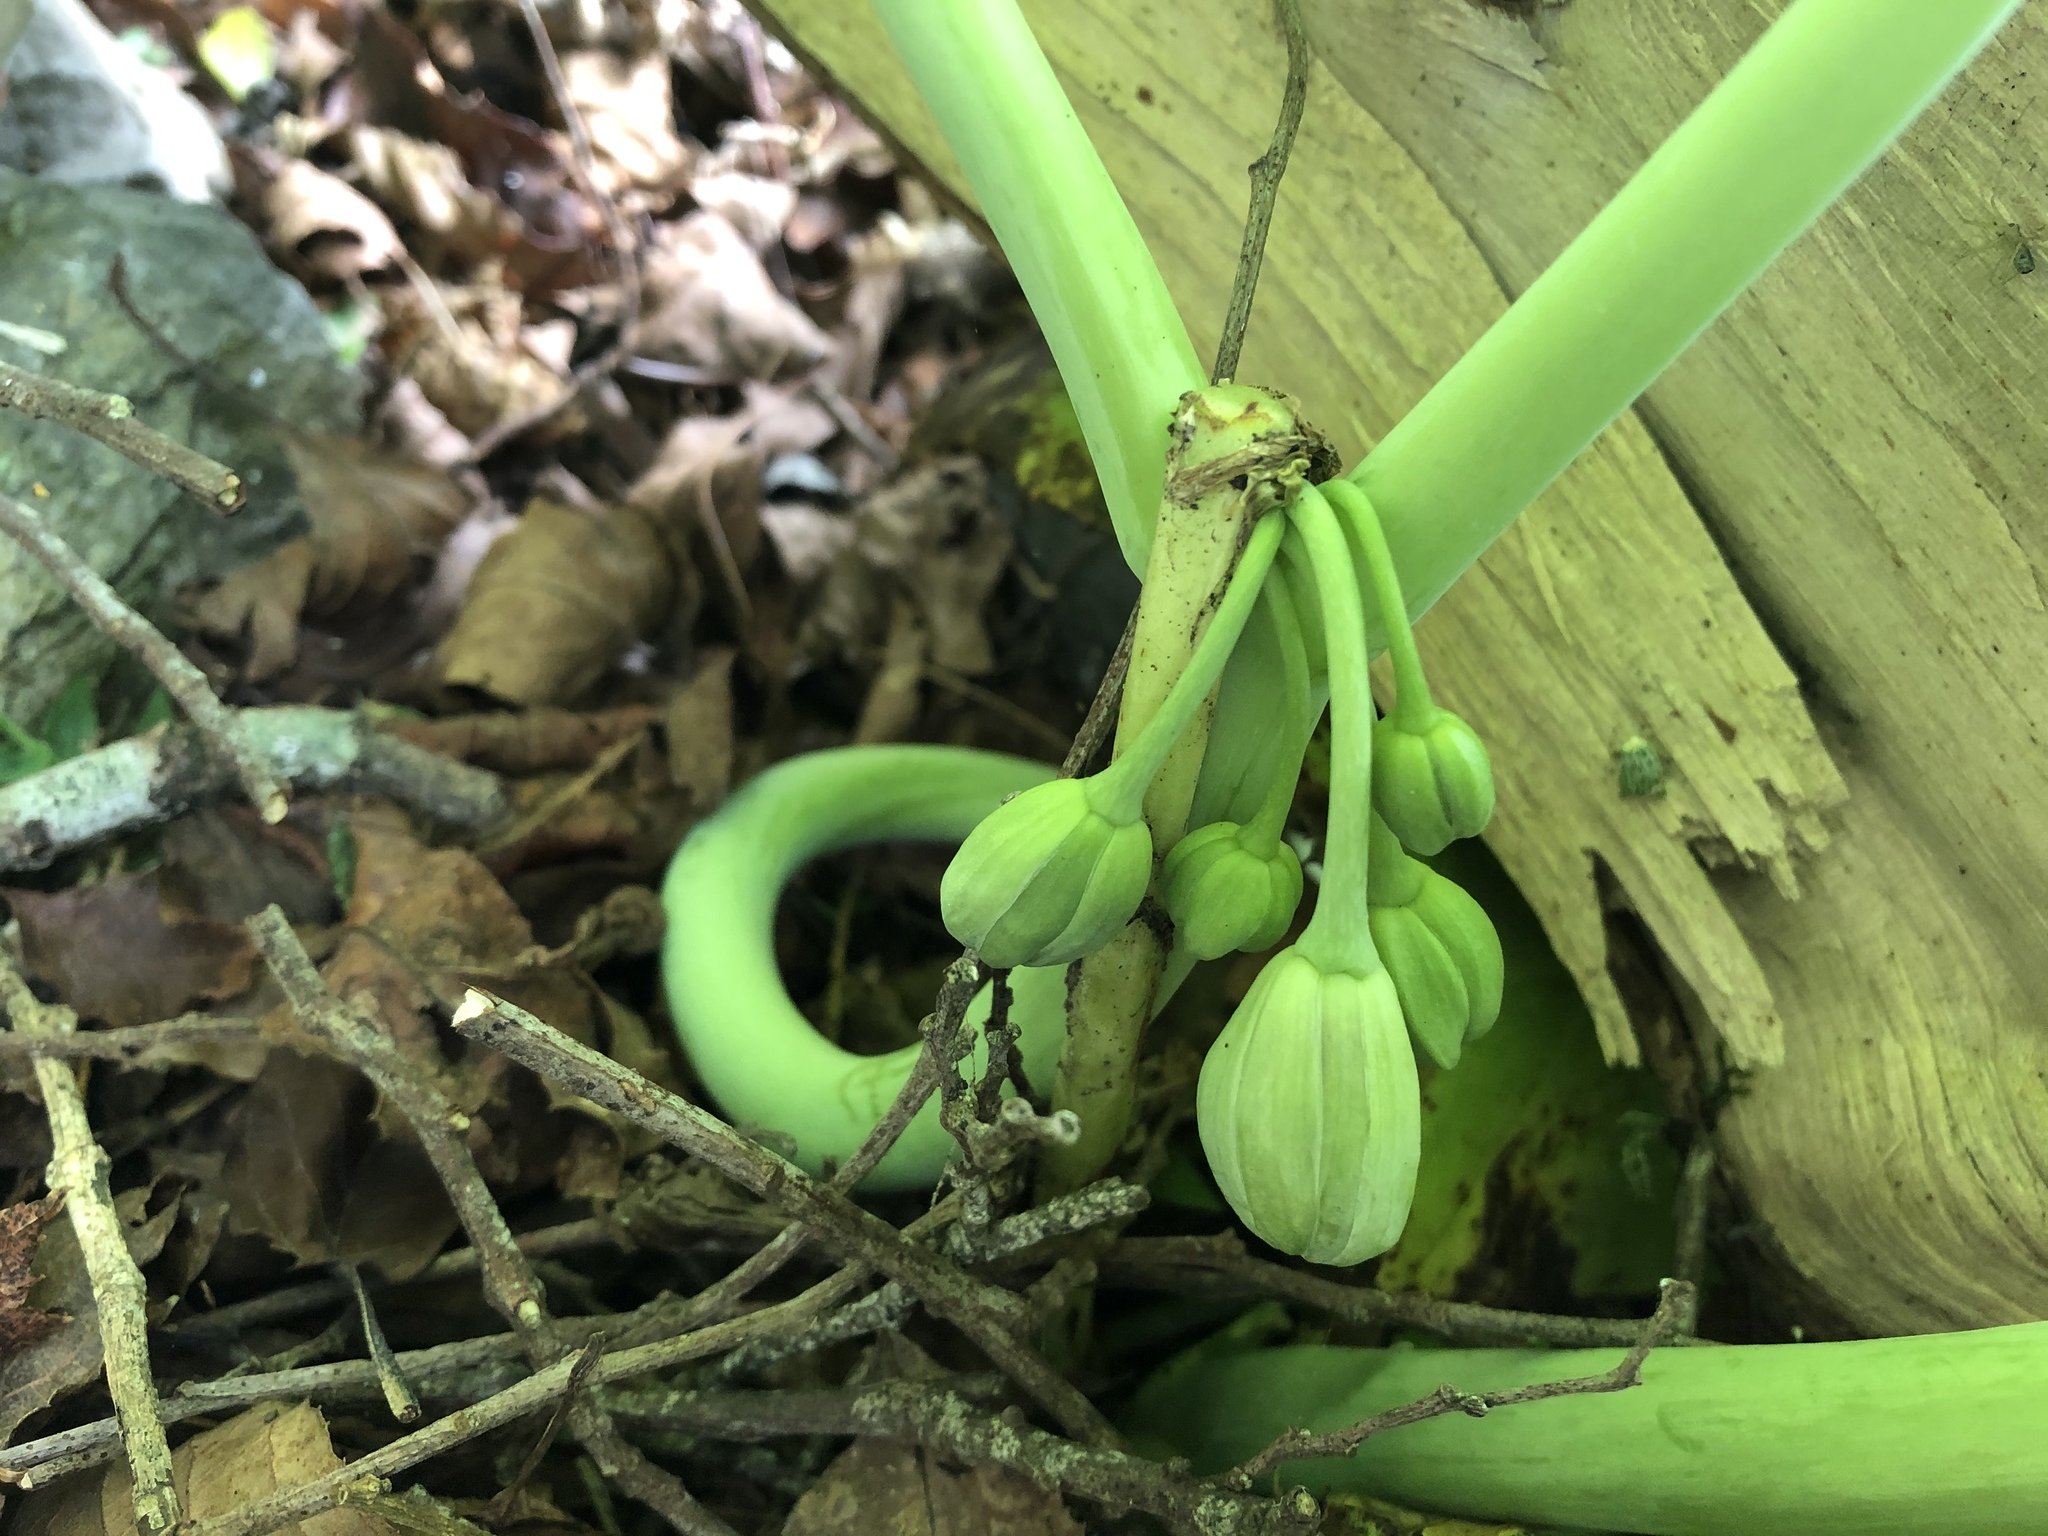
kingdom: Plantae
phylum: Tracheophyta
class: Magnoliopsida
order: Ranunculales
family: Berberidaceae
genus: Dysosma
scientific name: Dysosma pleiantha
